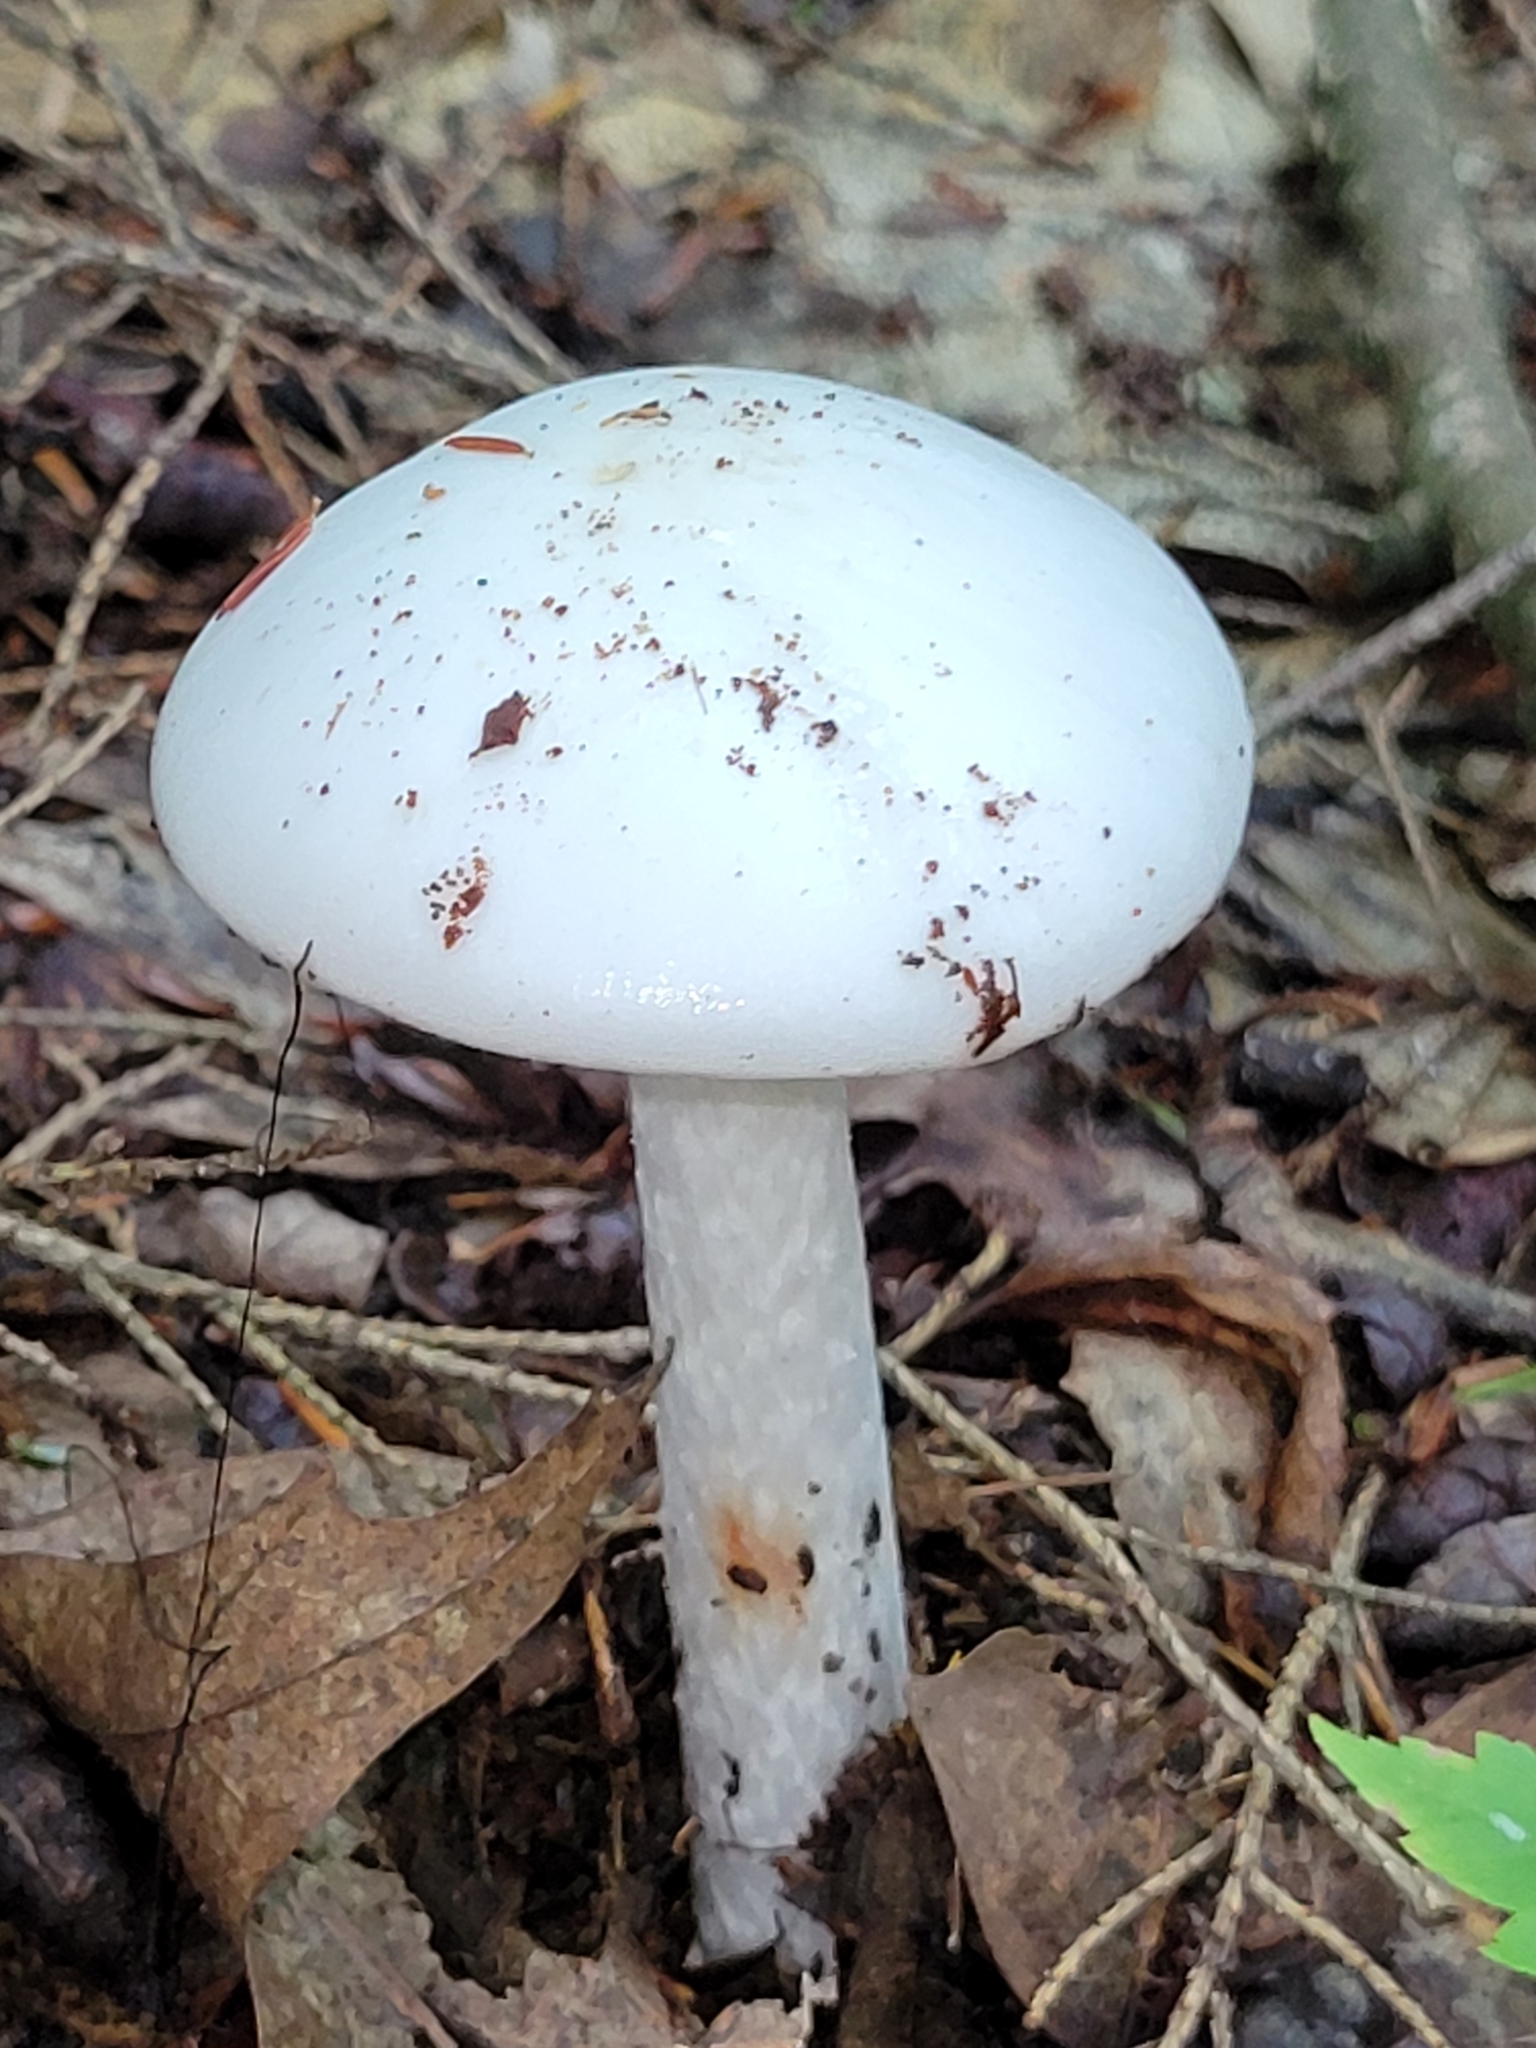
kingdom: Fungi
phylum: Basidiomycota
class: Agaricomycetes
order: Agaricales
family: Amanitaceae
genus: Amanita
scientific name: Amanita bisporigera
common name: Eastern north american destroying angel
